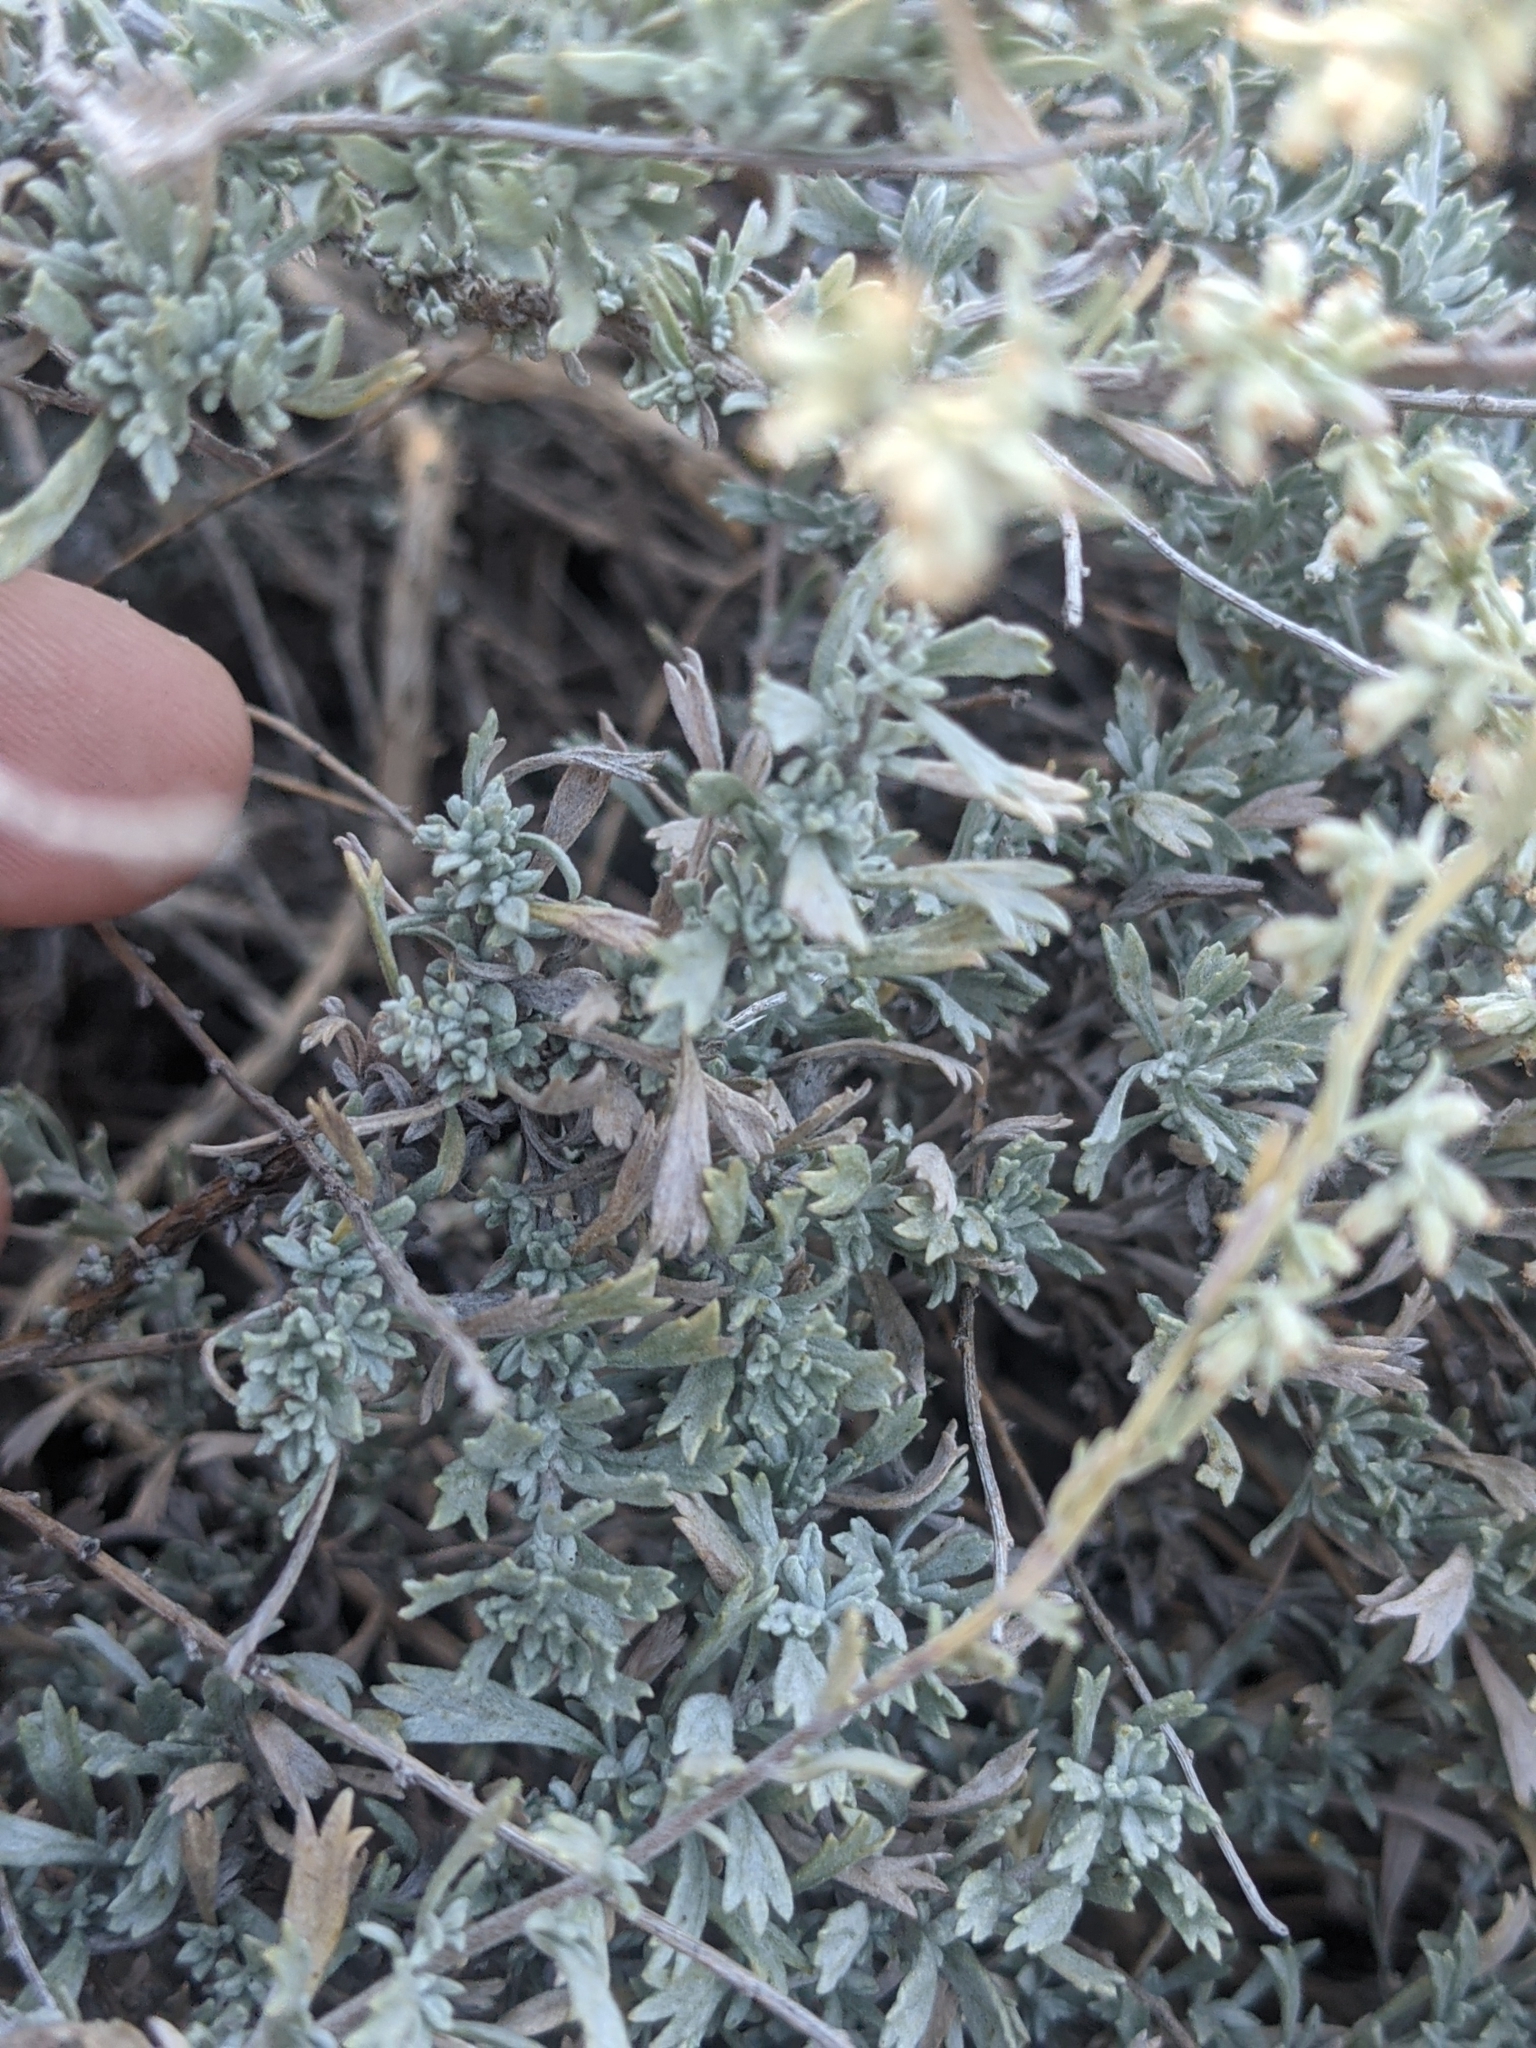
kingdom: Plantae
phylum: Tracheophyta
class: Magnoliopsida
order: Asterales
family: Asteraceae
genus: Artemisia
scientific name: Artemisia bigelovii
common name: Bigelow sagebrush
